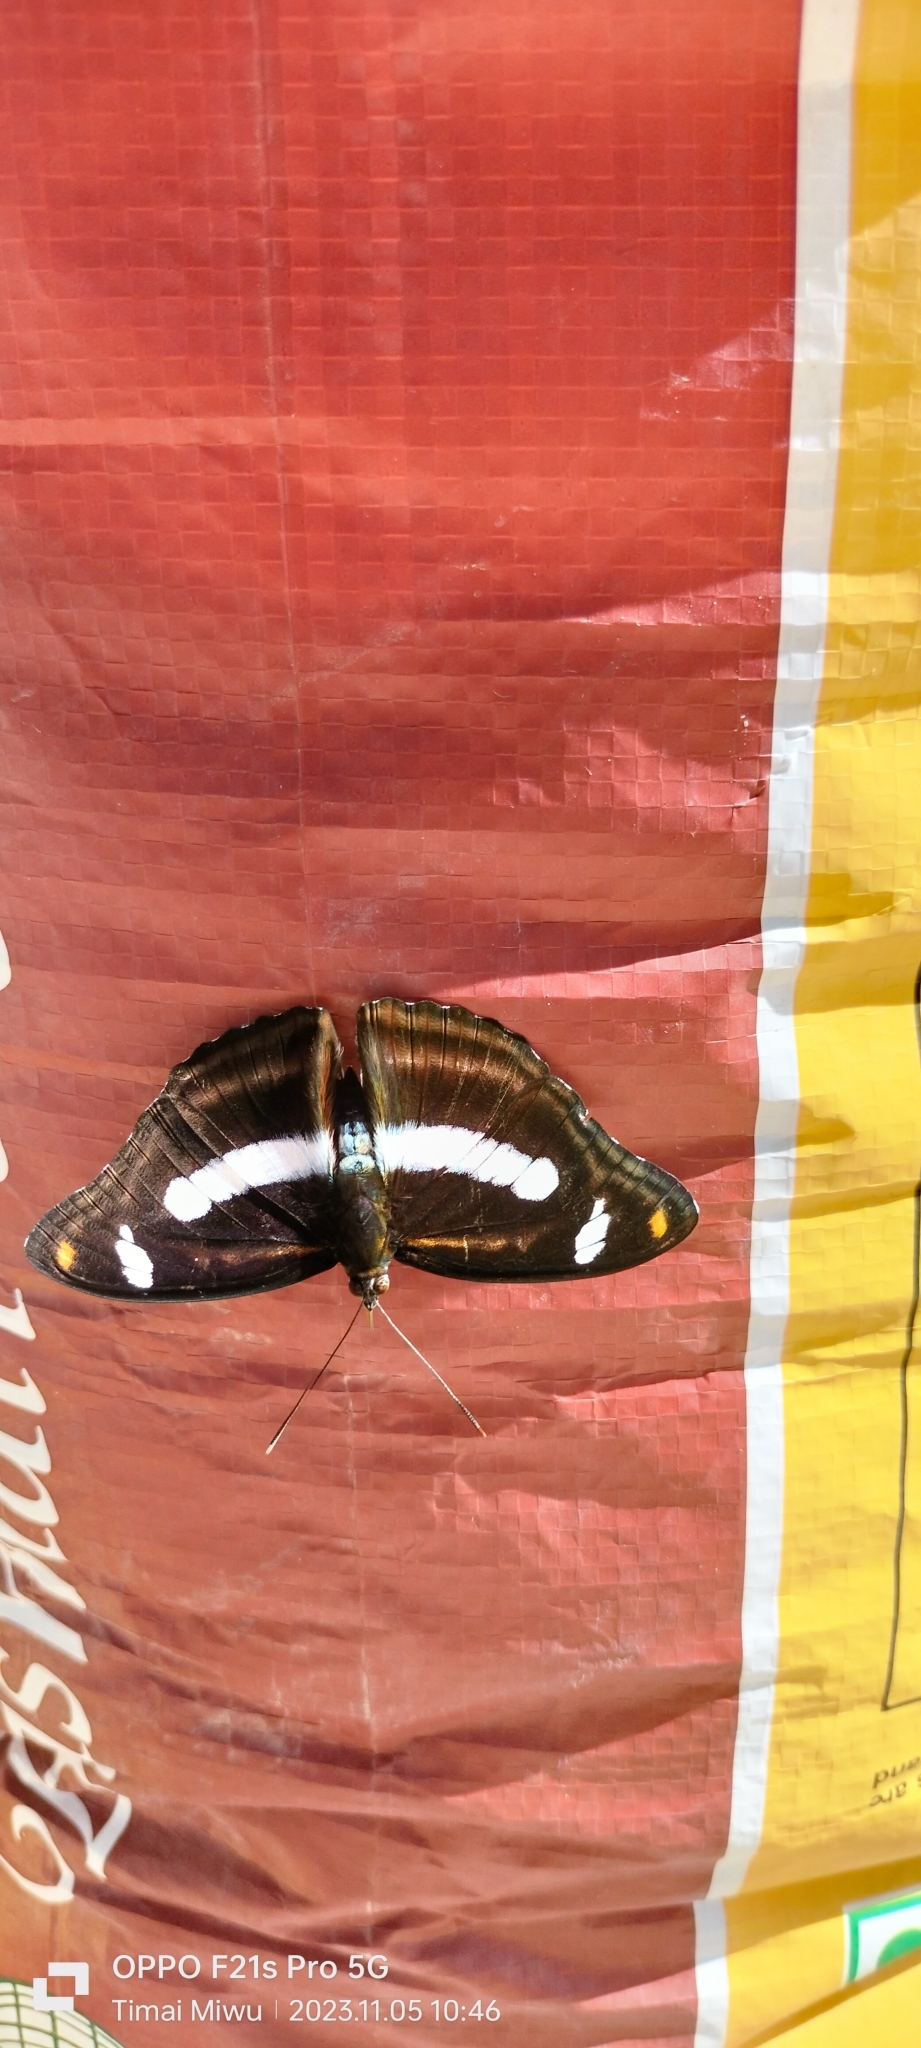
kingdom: Animalia
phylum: Arthropoda
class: Insecta
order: Lepidoptera
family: Nymphalidae
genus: Pantoporia
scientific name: Pantoporia cama
